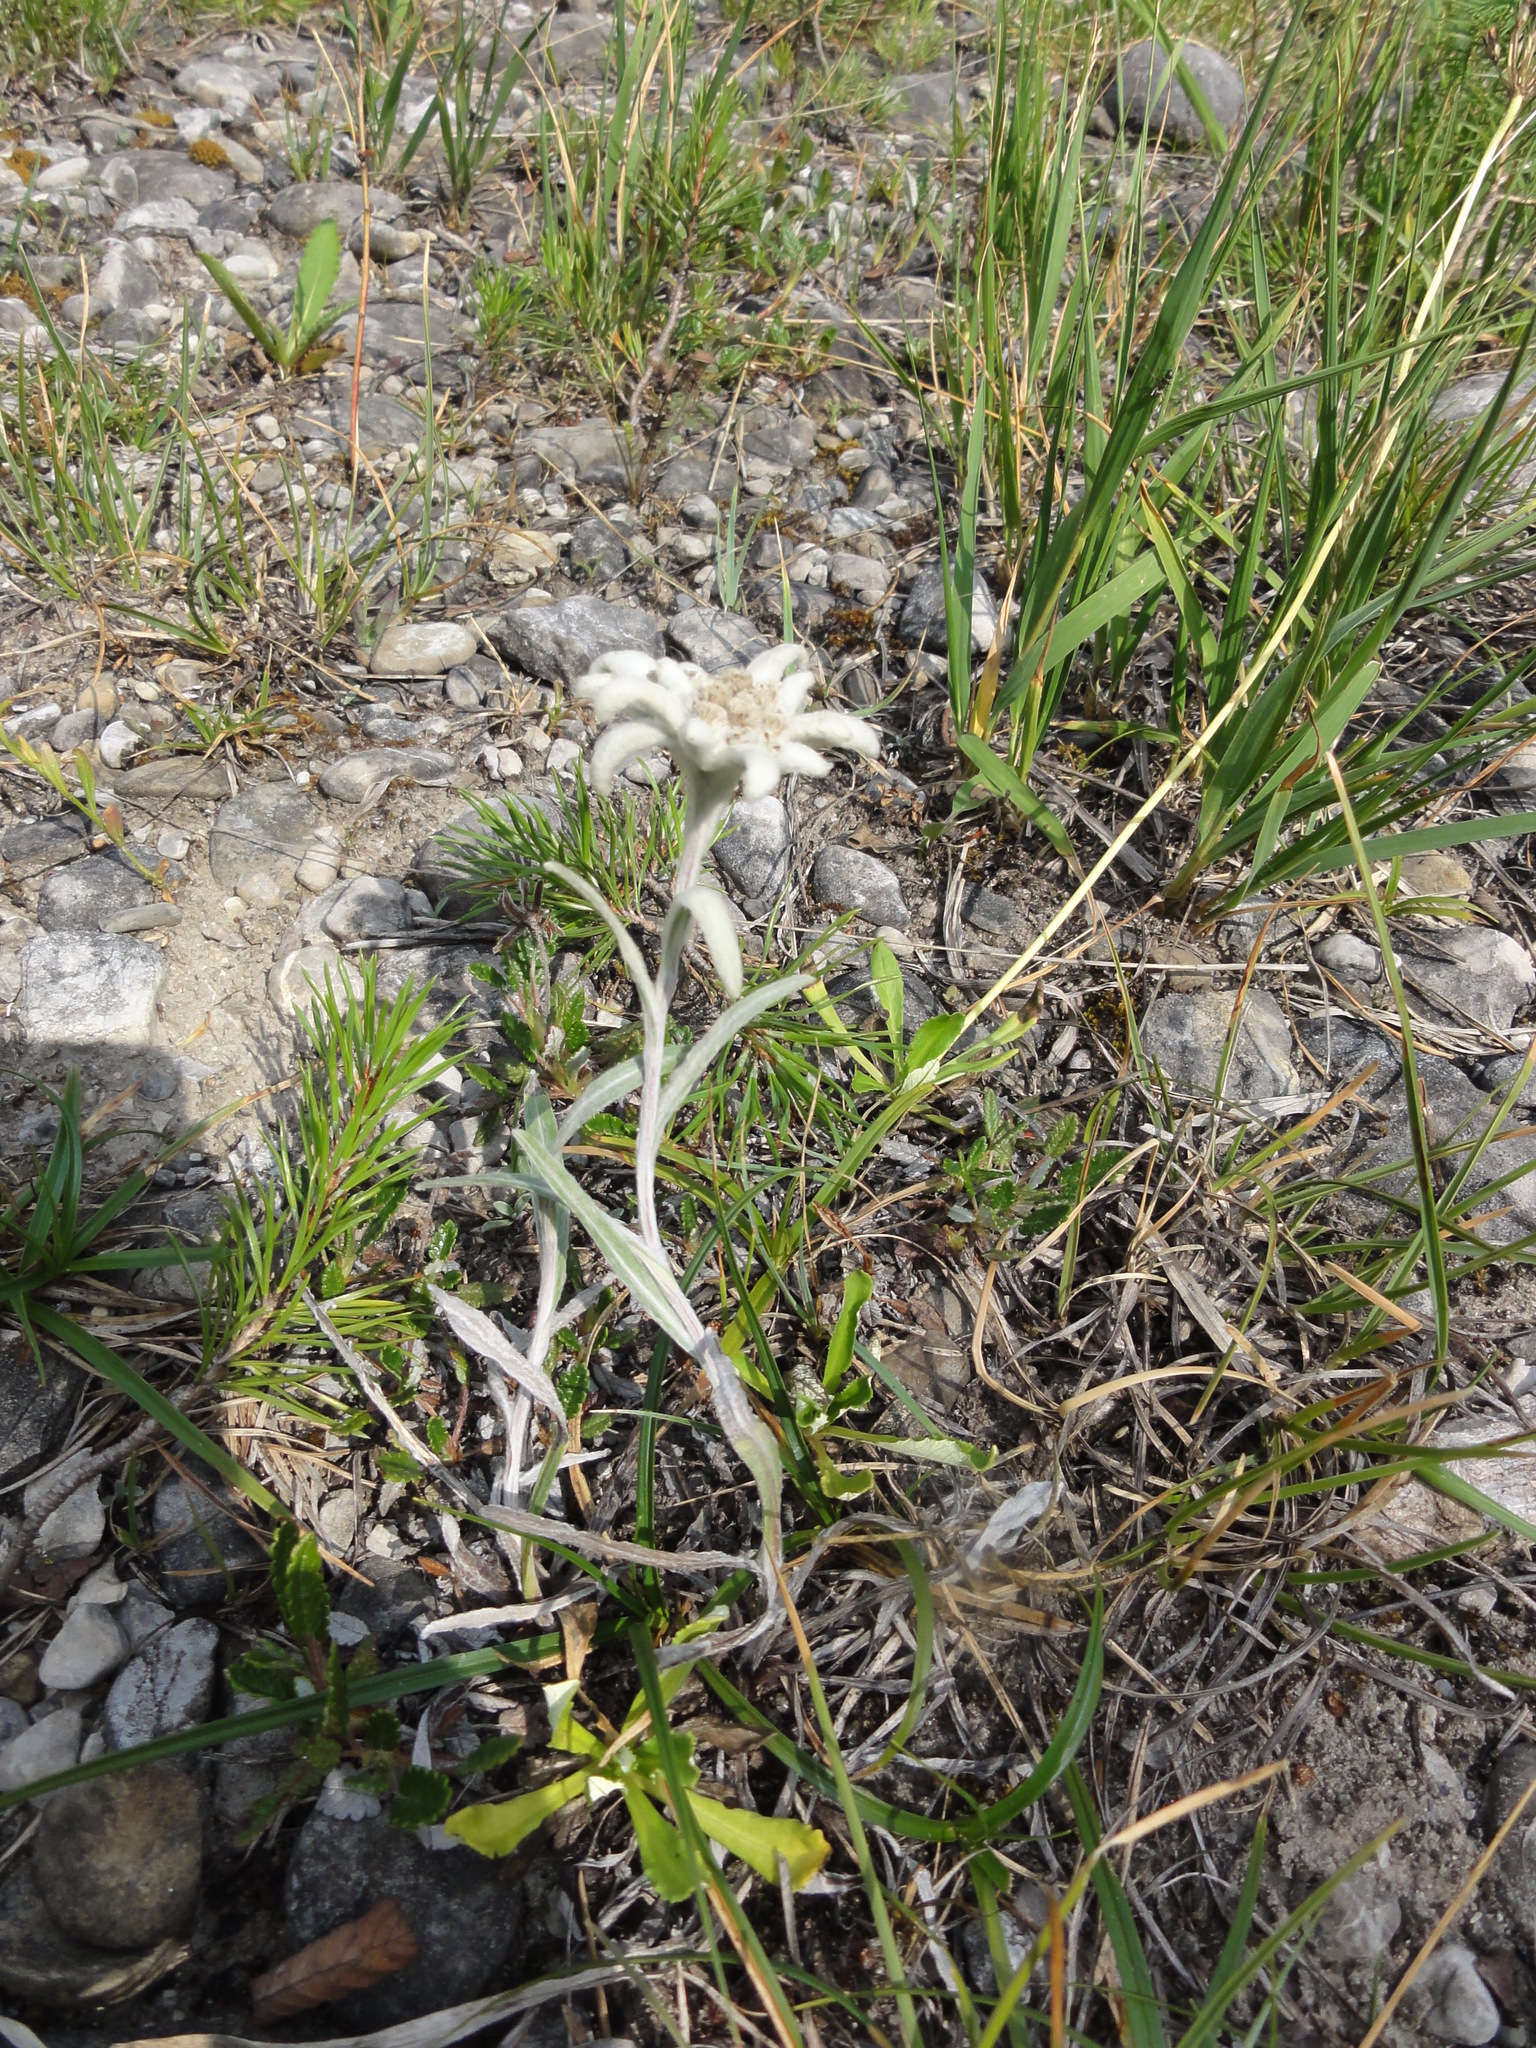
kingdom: Plantae
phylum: Tracheophyta
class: Magnoliopsida
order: Asterales
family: Asteraceae
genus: Leontopodium
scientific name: Leontopodium nivale
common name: Edelweiss
